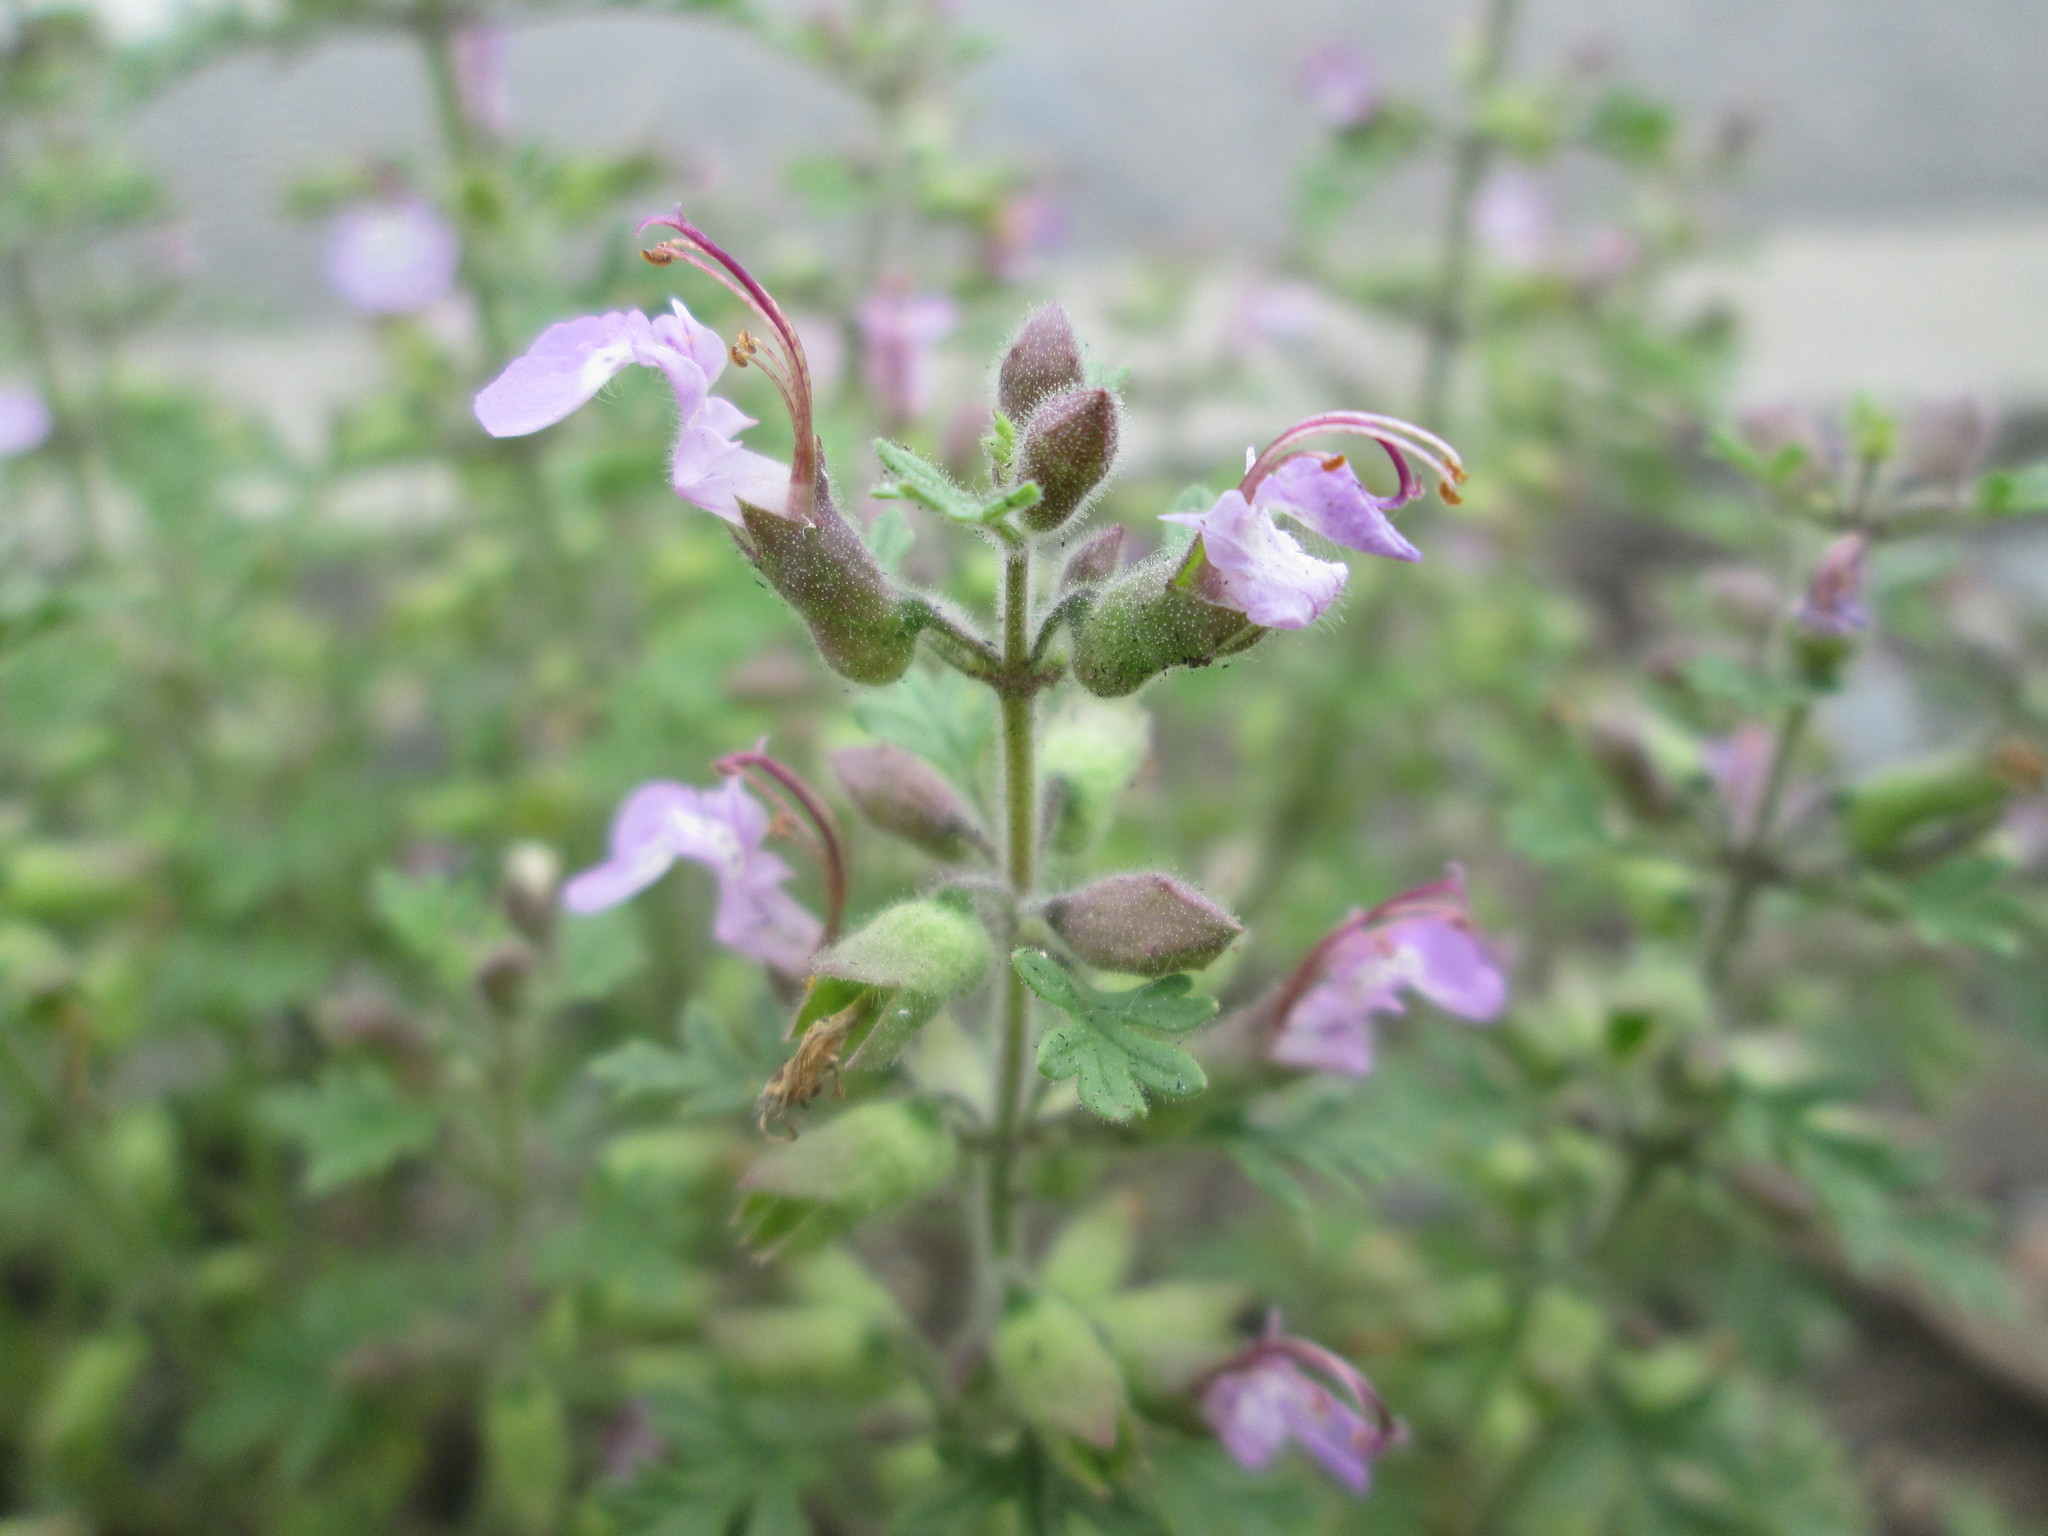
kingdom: Plantae
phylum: Tracheophyta
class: Magnoliopsida
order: Lamiales
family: Lamiaceae
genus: Teucrium
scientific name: Teucrium botrys
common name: Cut-leaved germander
